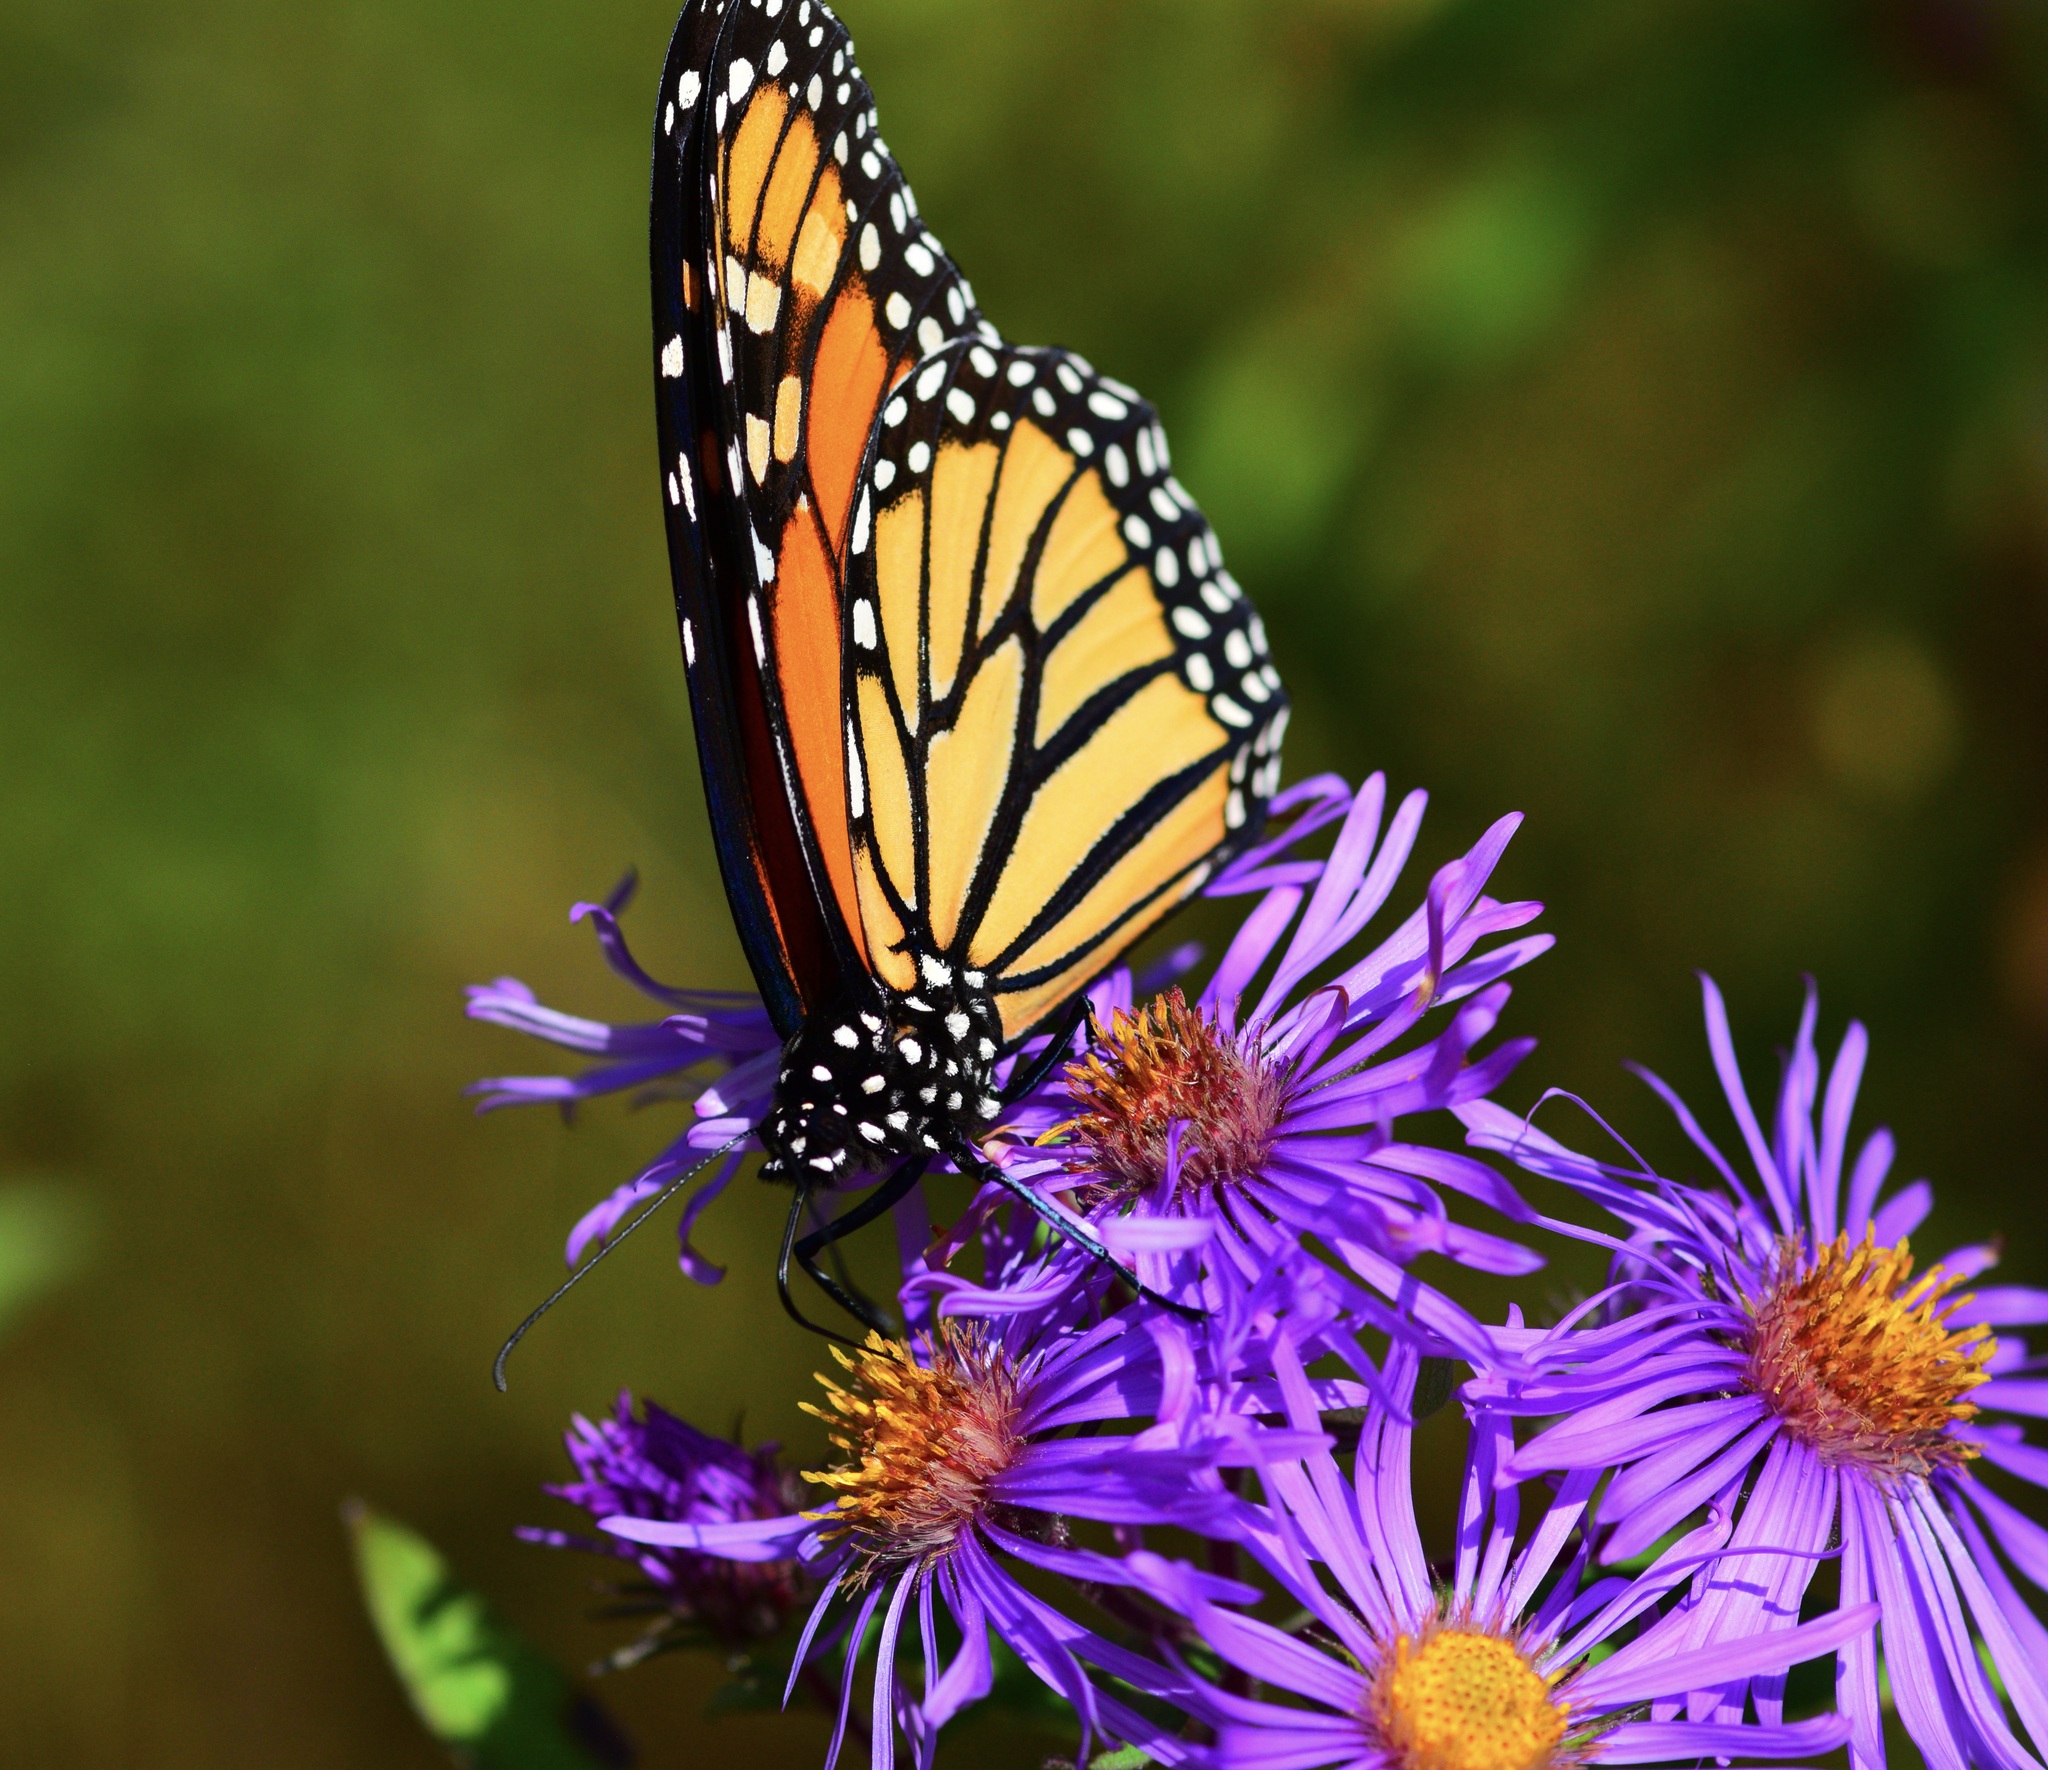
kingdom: Animalia
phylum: Arthropoda
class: Insecta
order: Lepidoptera
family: Nymphalidae
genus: Danaus
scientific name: Danaus plexippus
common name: Monarch
